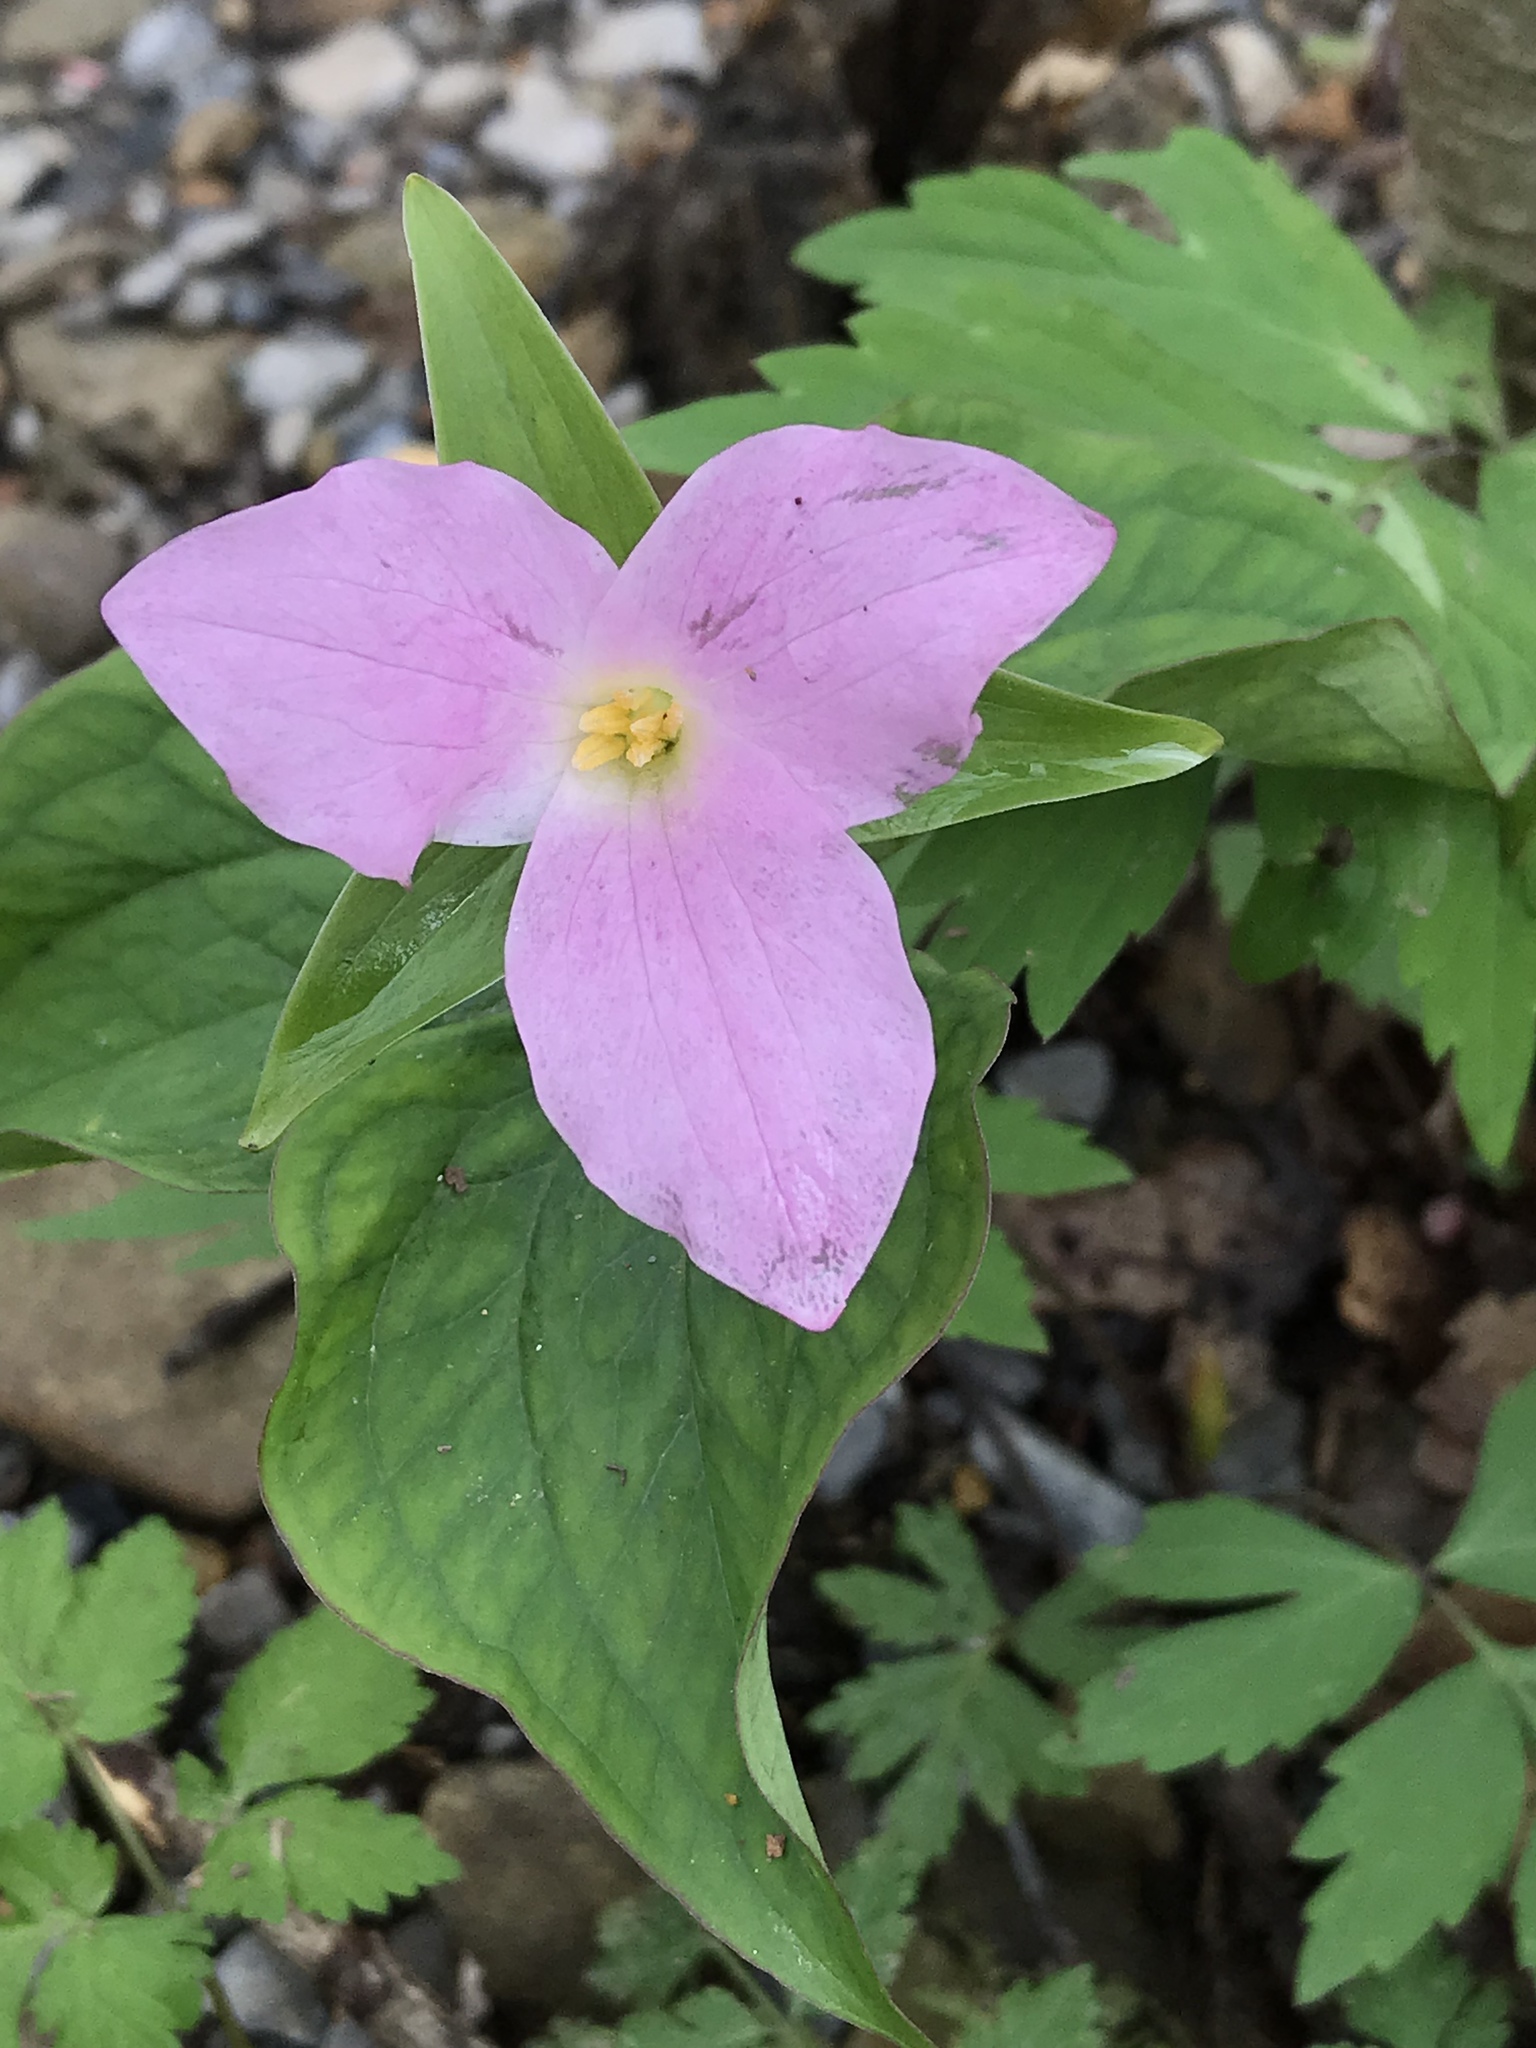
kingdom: Plantae
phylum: Tracheophyta
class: Liliopsida
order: Liliales
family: Melanthiaceae
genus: Trillium
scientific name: Trillium grandiflorum
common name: Great white trillium
